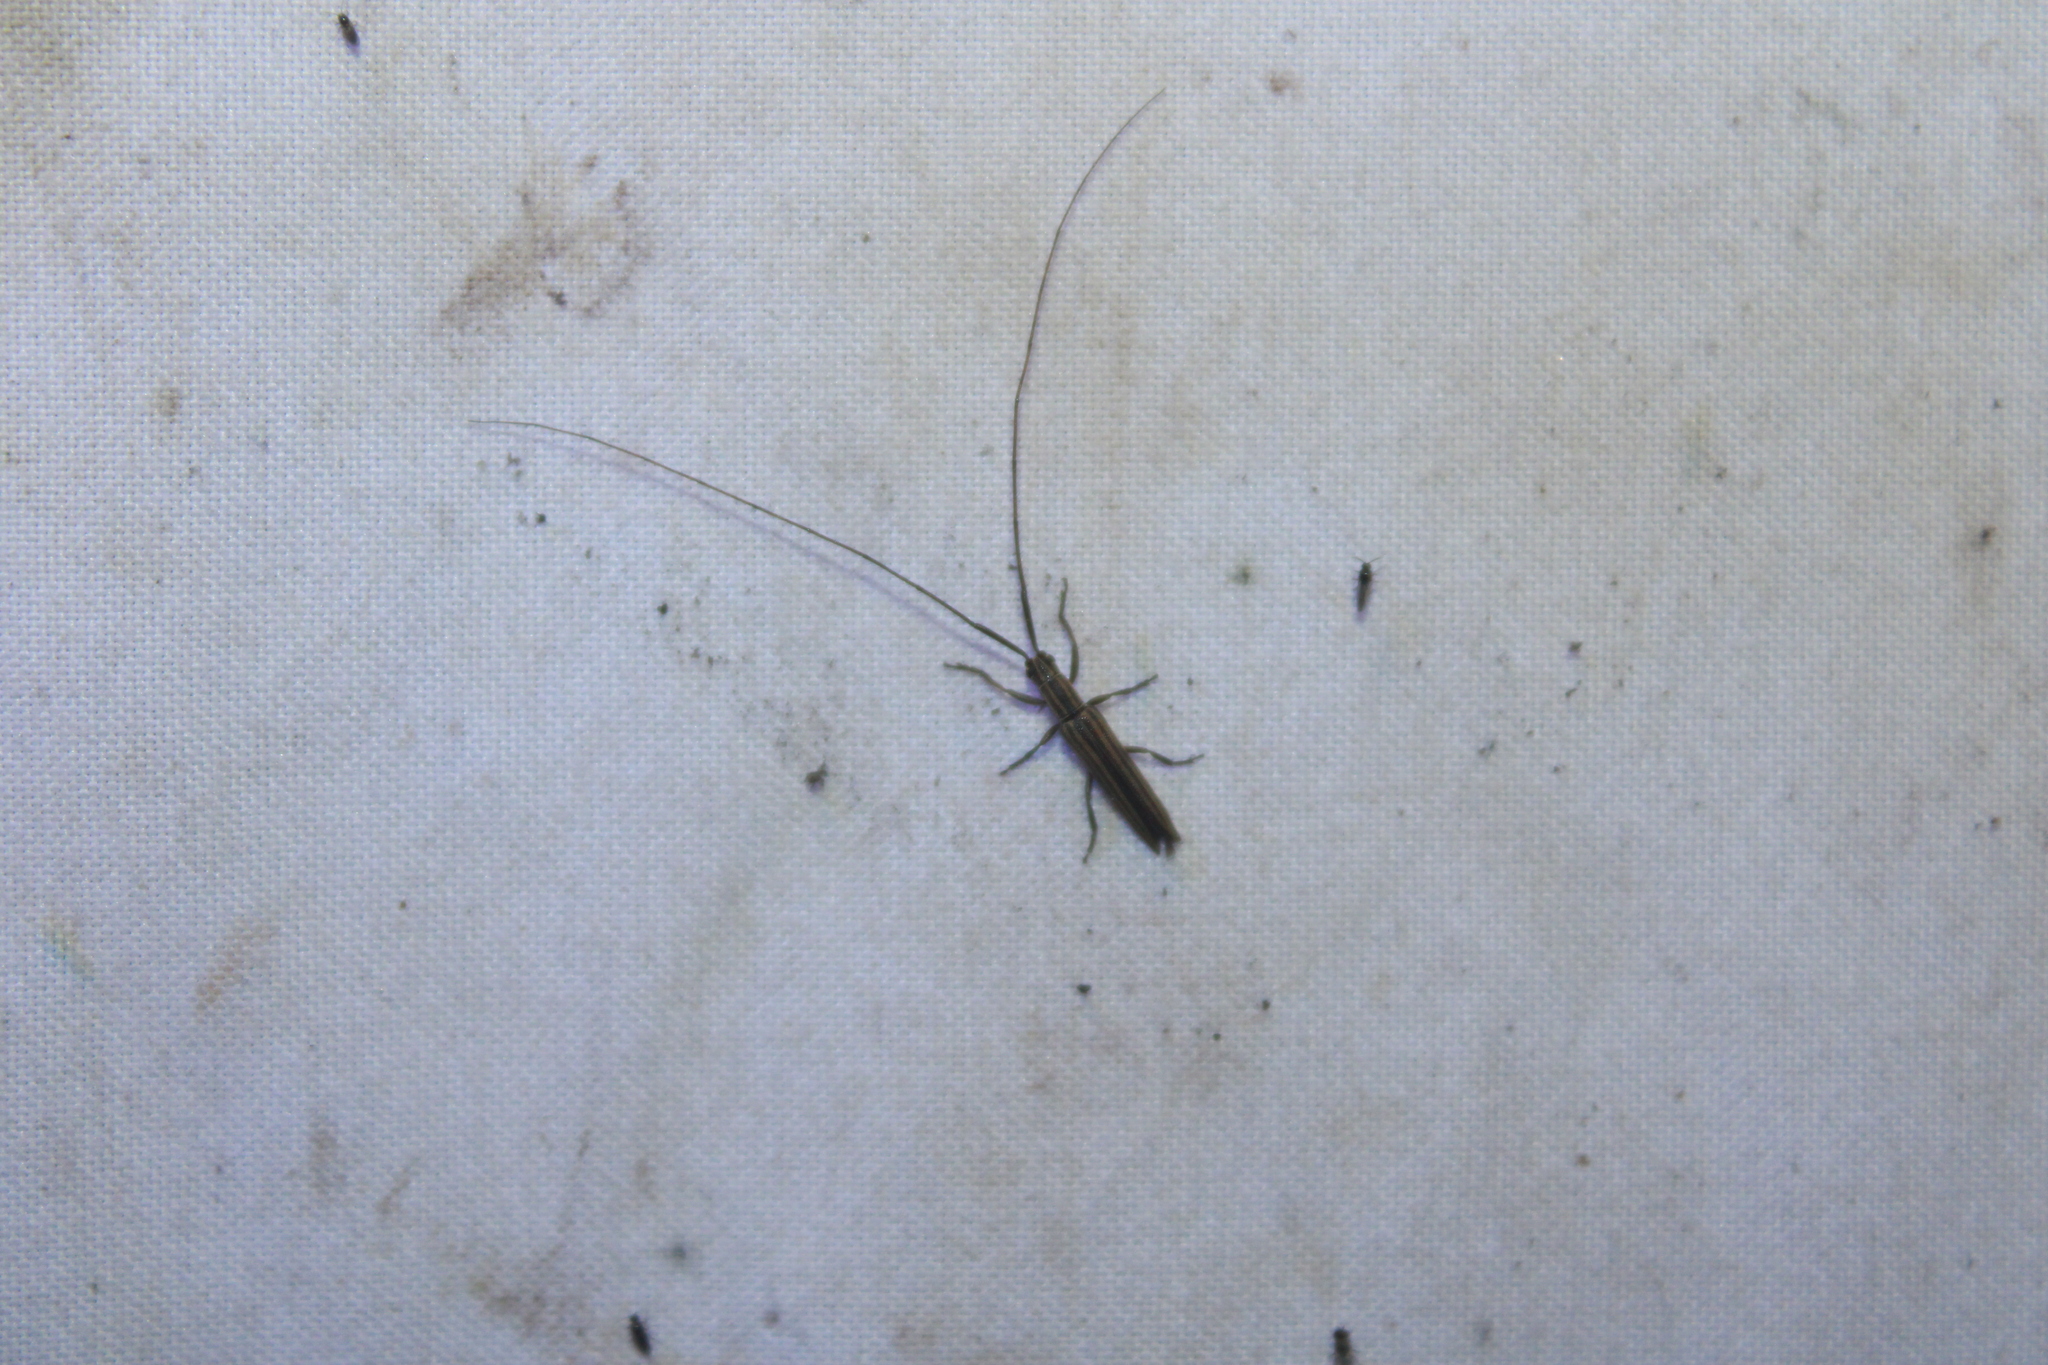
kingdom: Animalia
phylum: Arthropoda
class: Insecta
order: Coleoptera
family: Cerambycidae
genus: Hippopsis
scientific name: Hippopsis
